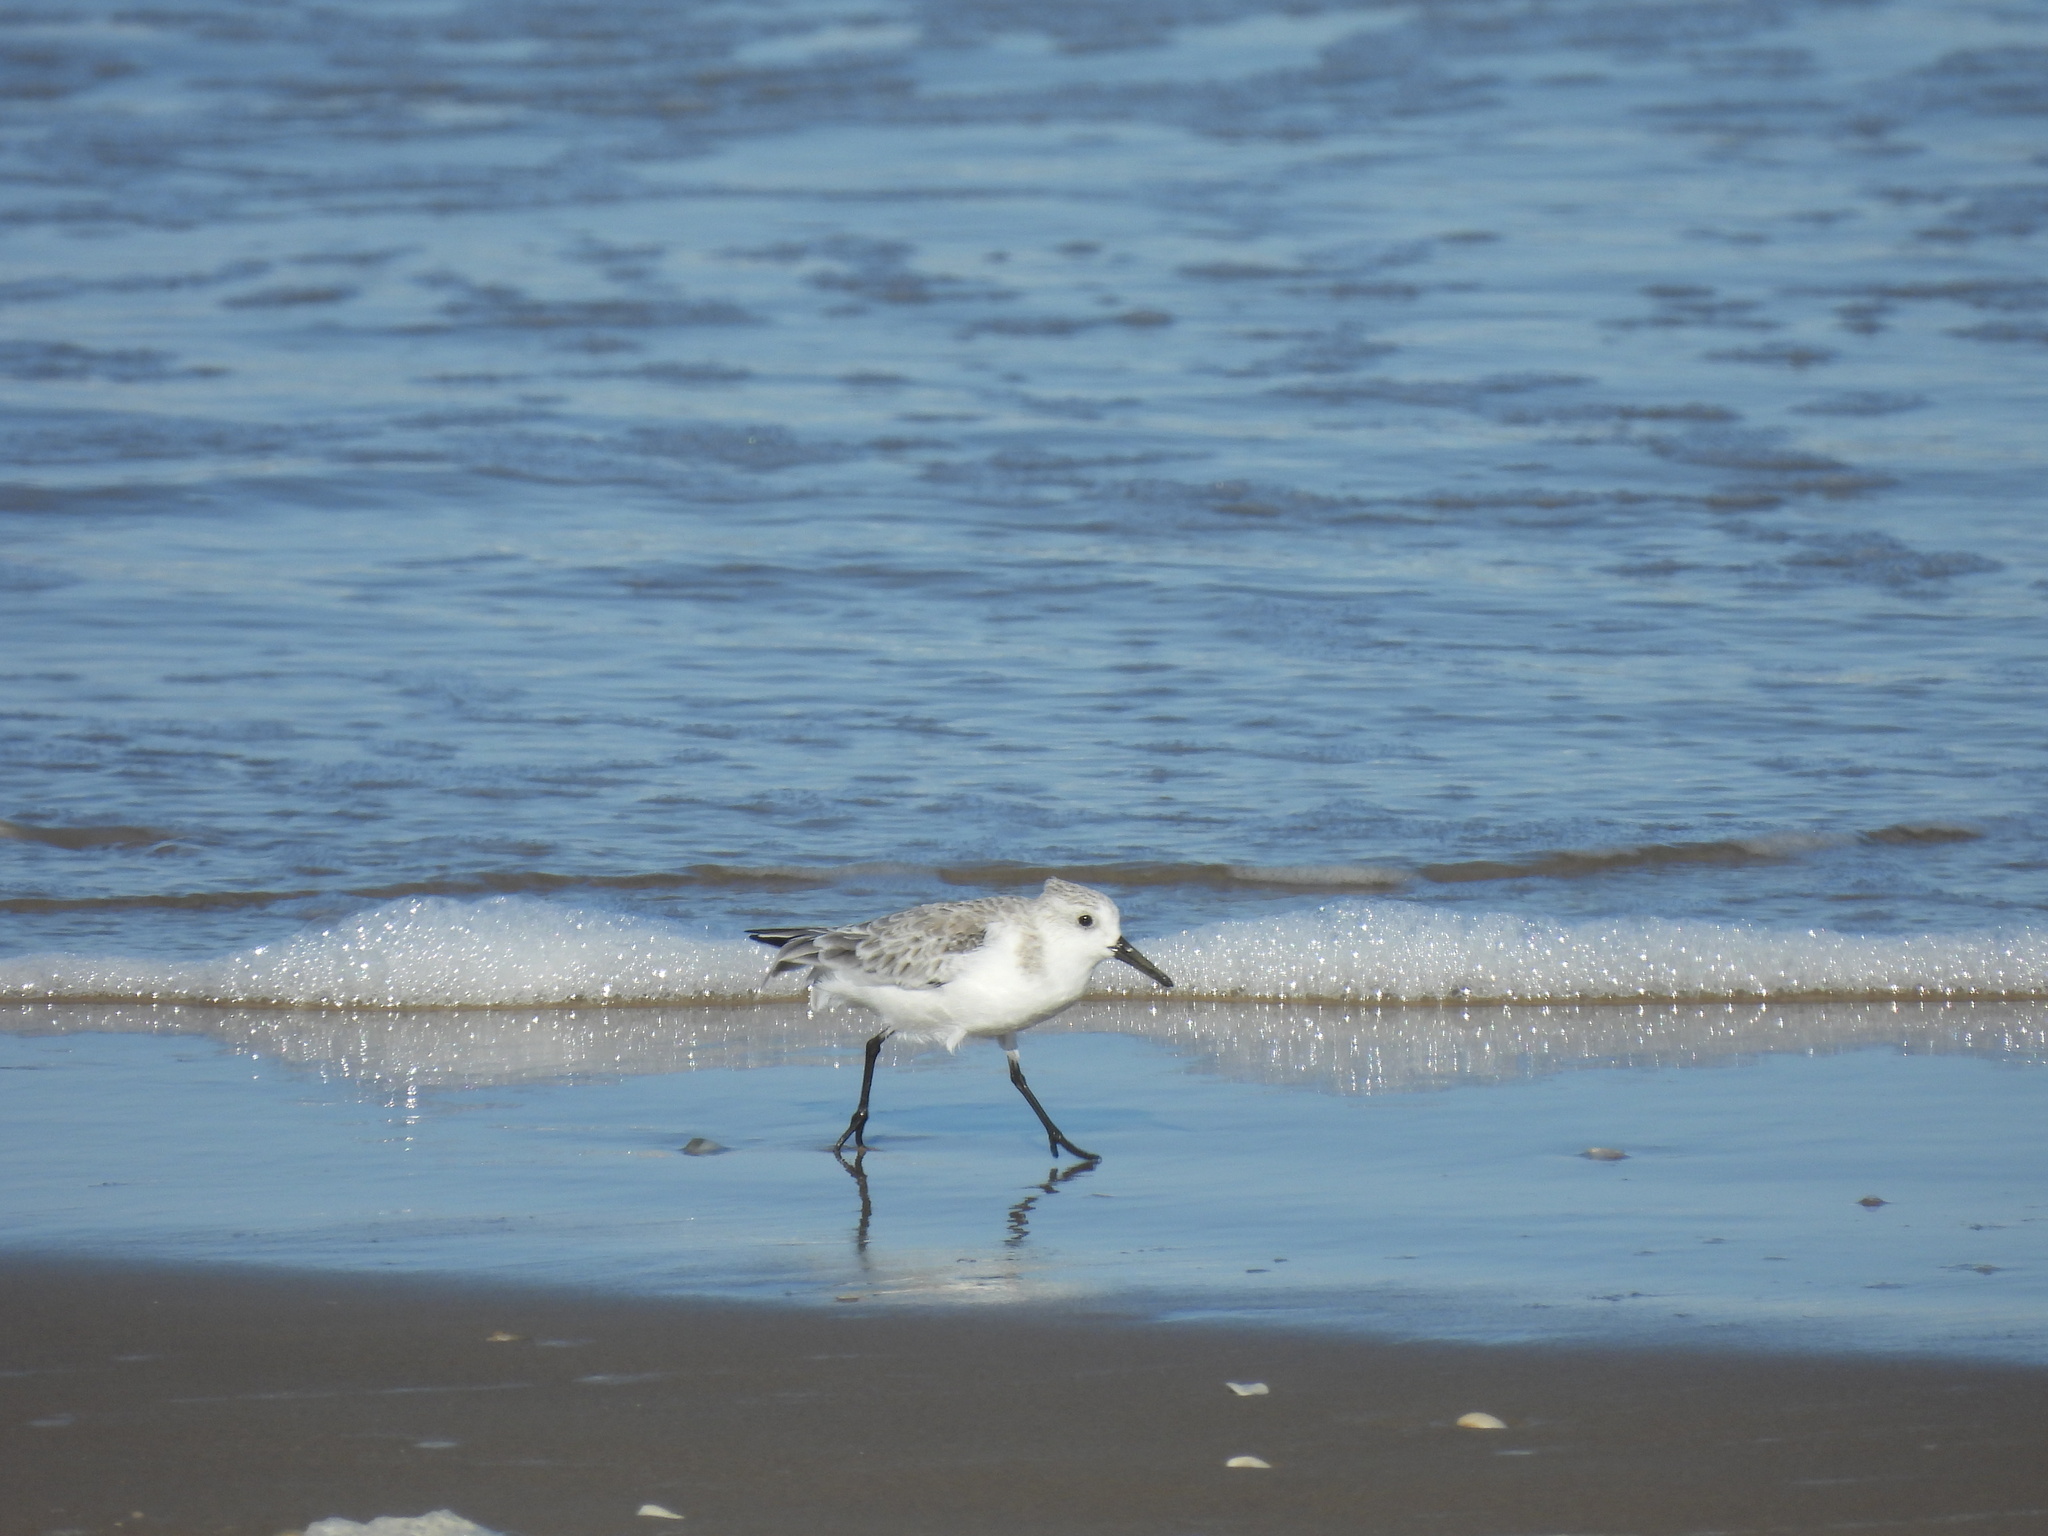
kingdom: Animalia
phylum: Chordata
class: Aves
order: Charadriiformes
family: Scolopacidae
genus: Calidris
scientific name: Calidris alba
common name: Sanderling
